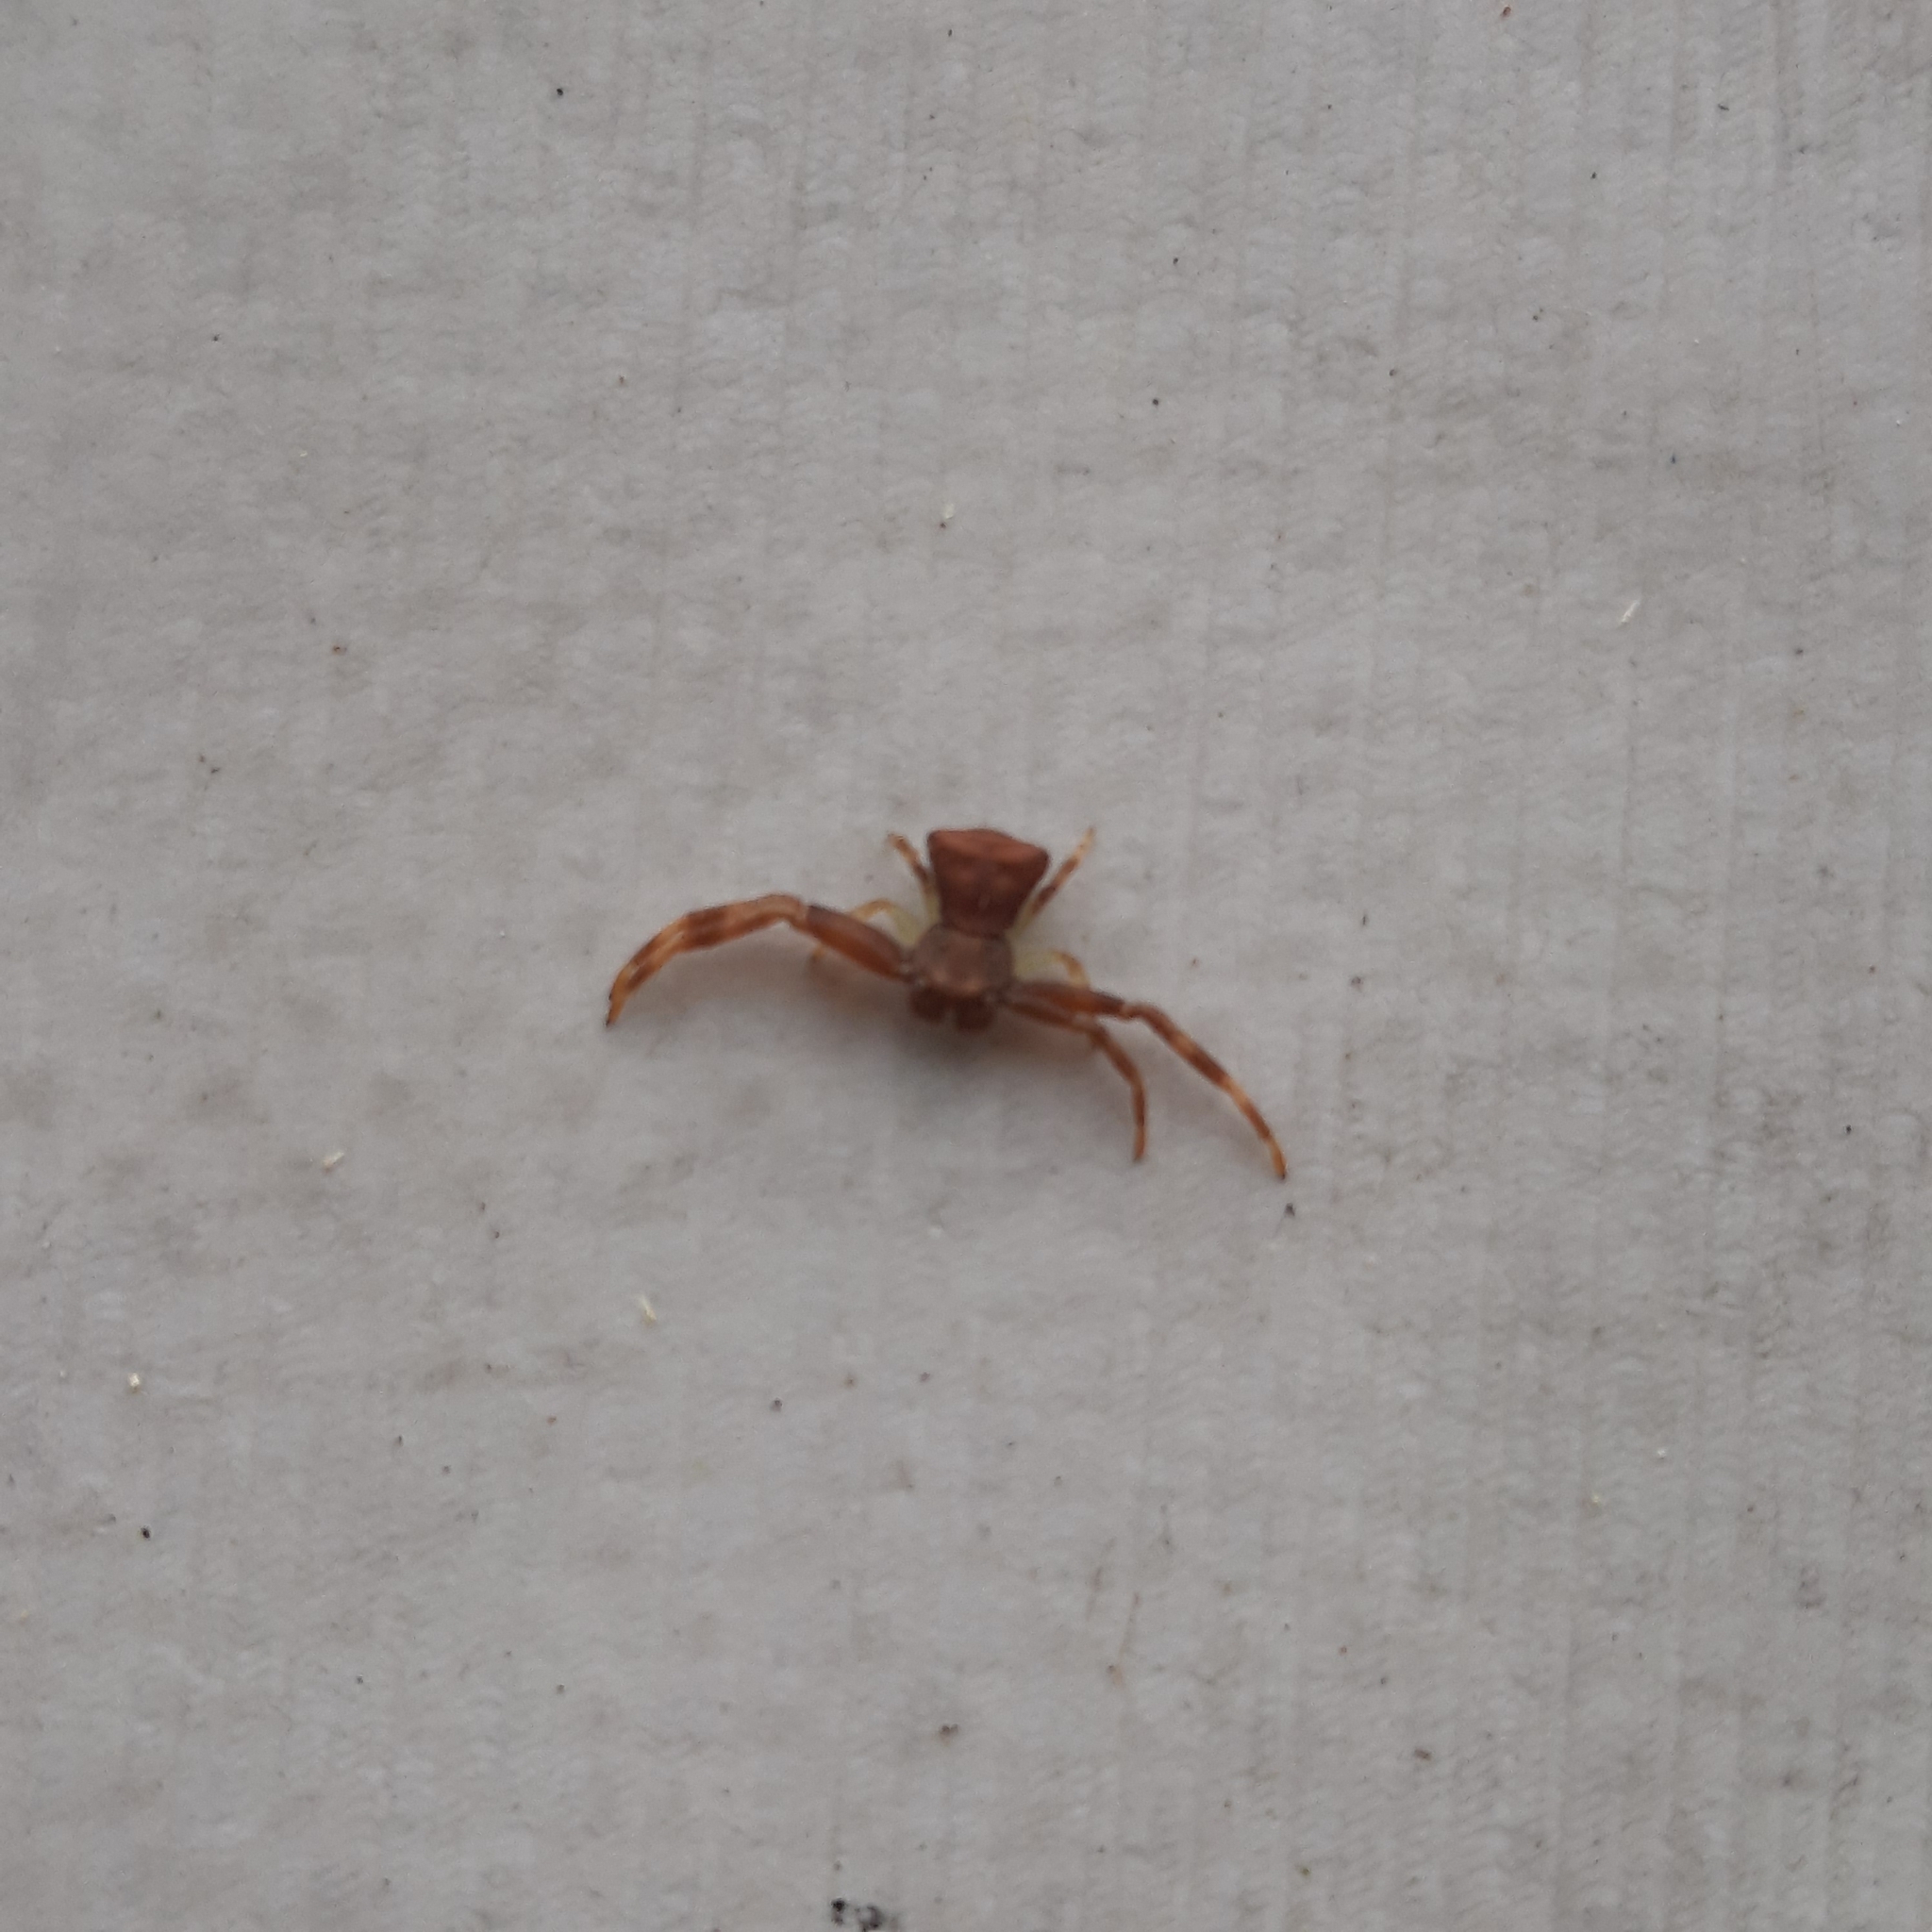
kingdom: Animalia
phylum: Arthropoda
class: Arachnida
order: Araneae
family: Thomisidae
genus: Pistius
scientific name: Pistius truncatus
